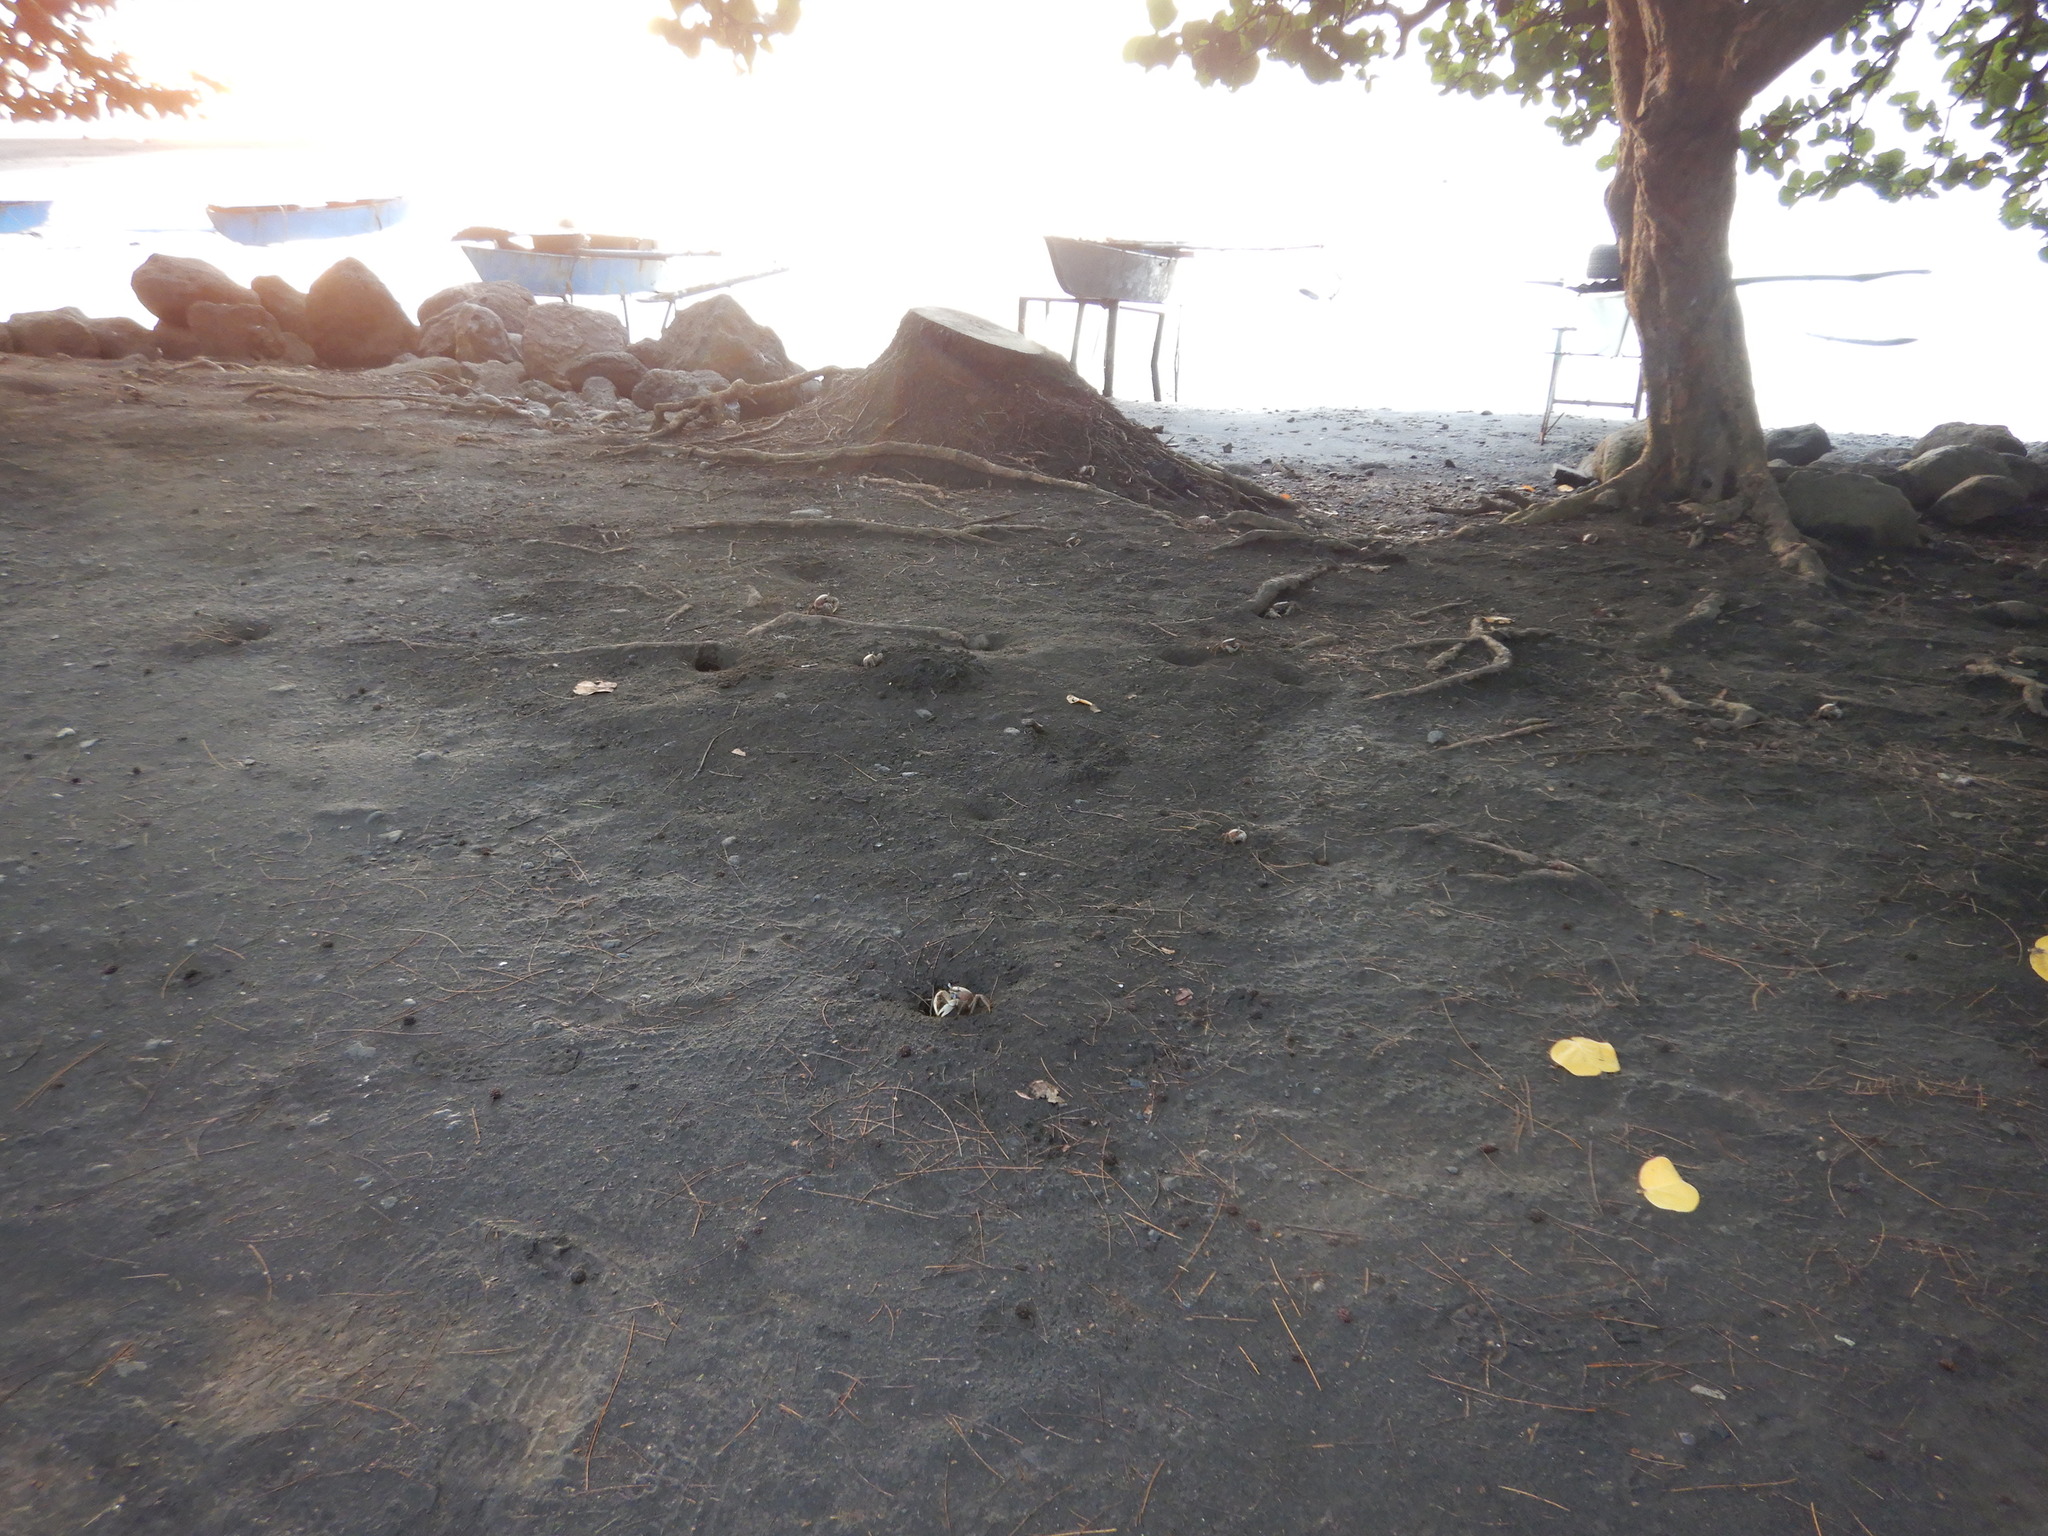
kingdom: Animalia
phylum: Arthropoda
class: Malacostraca
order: Decapoda
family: Gecarcinidae
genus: Cardisoma
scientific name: Cardisoma carnifex
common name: Brown land crab
